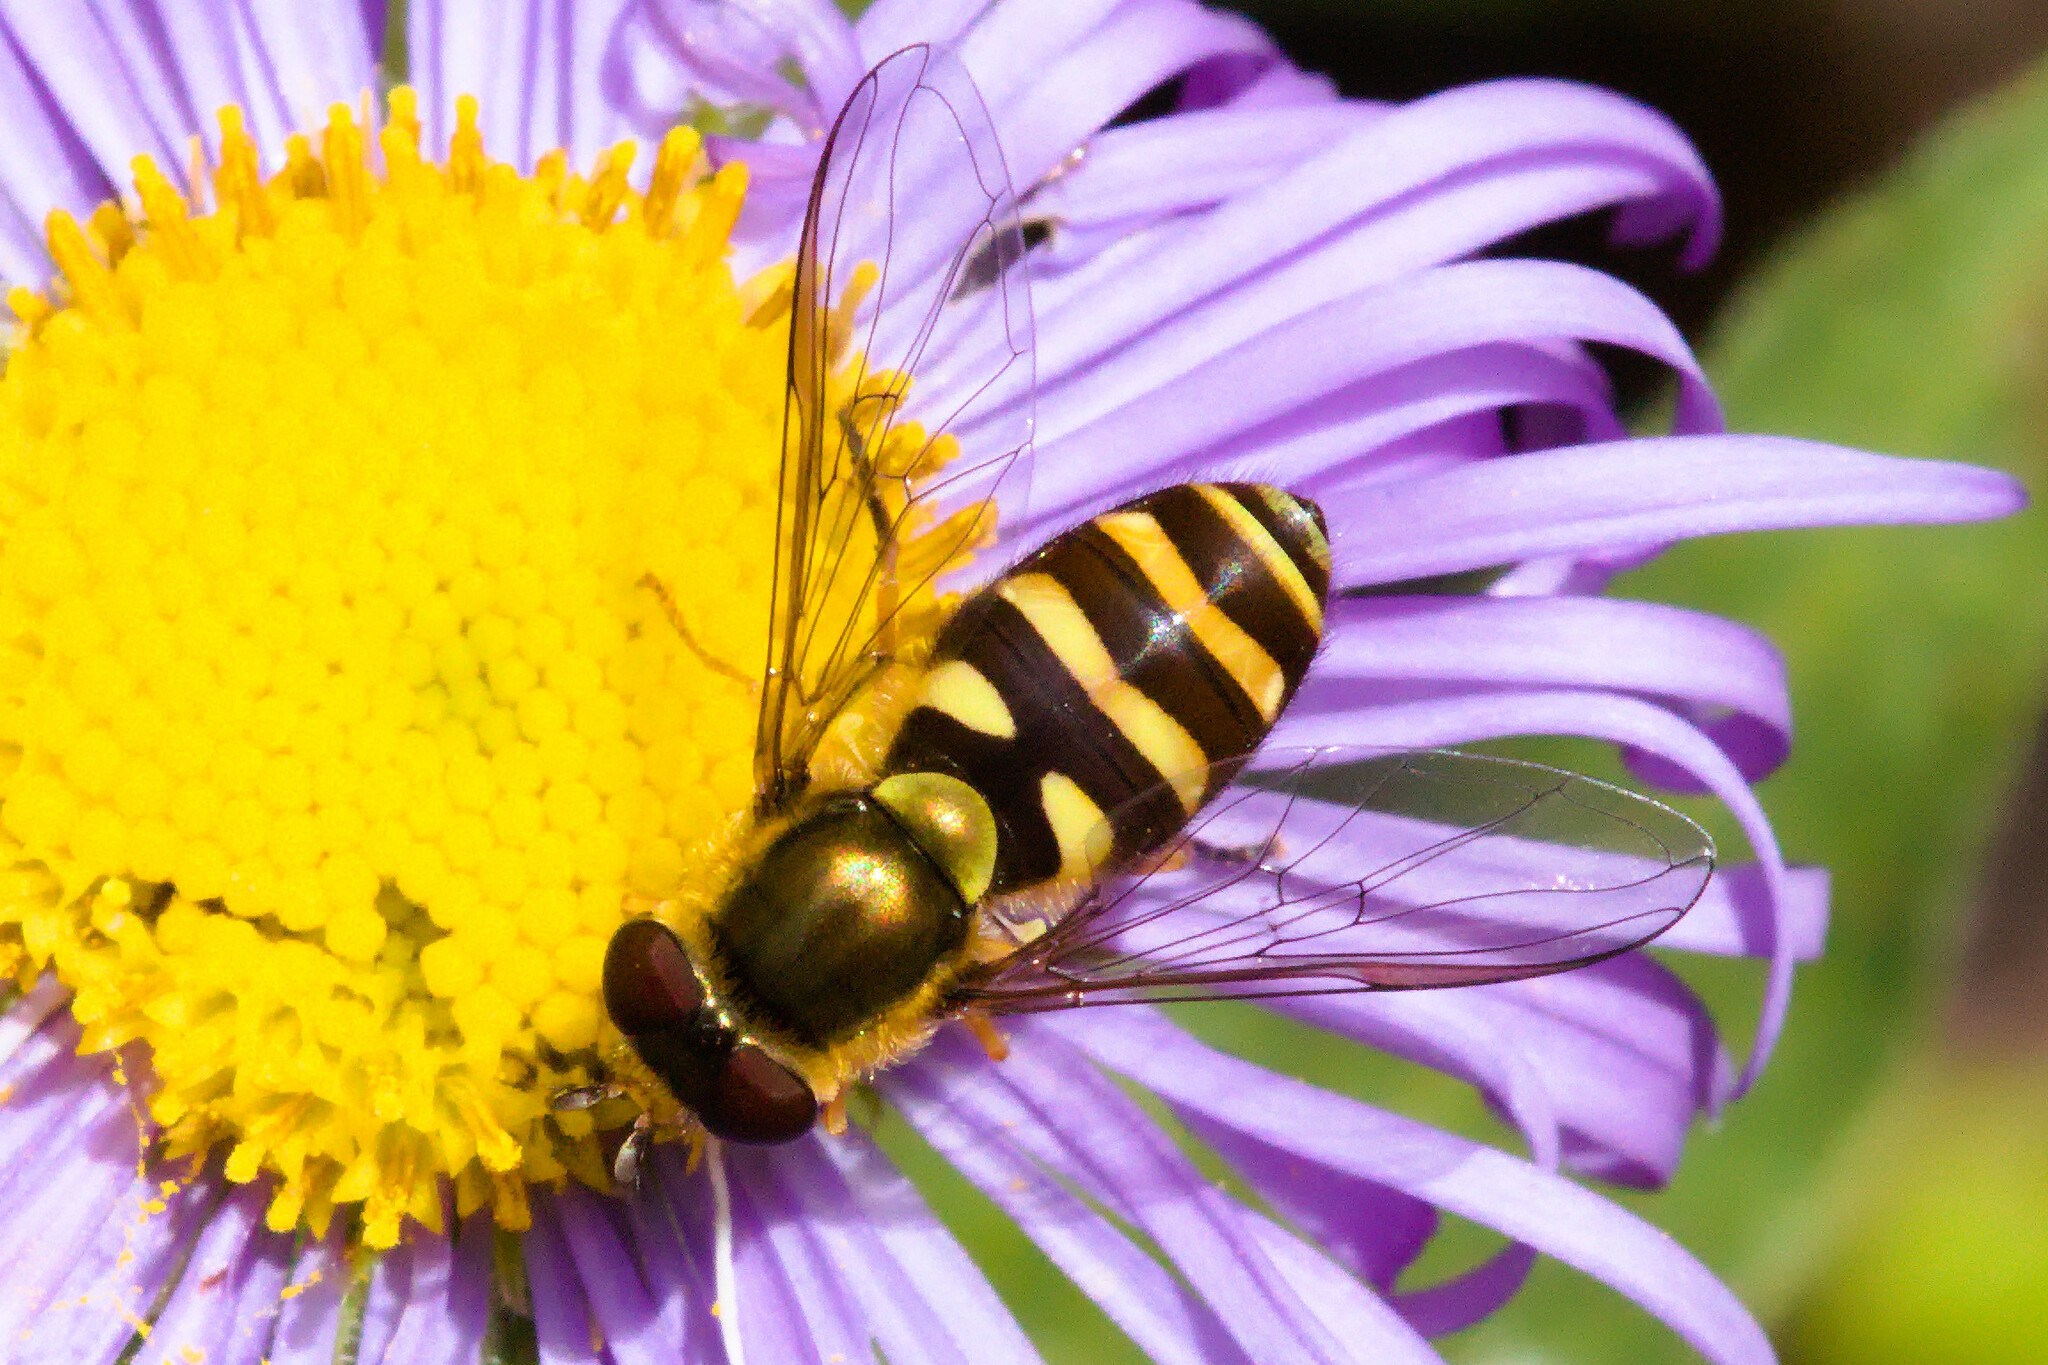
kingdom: Animalia
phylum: Arthropoda
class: Insecta
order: Diptera
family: Syrphidae
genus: Syrphus
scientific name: Syrphus opinator
